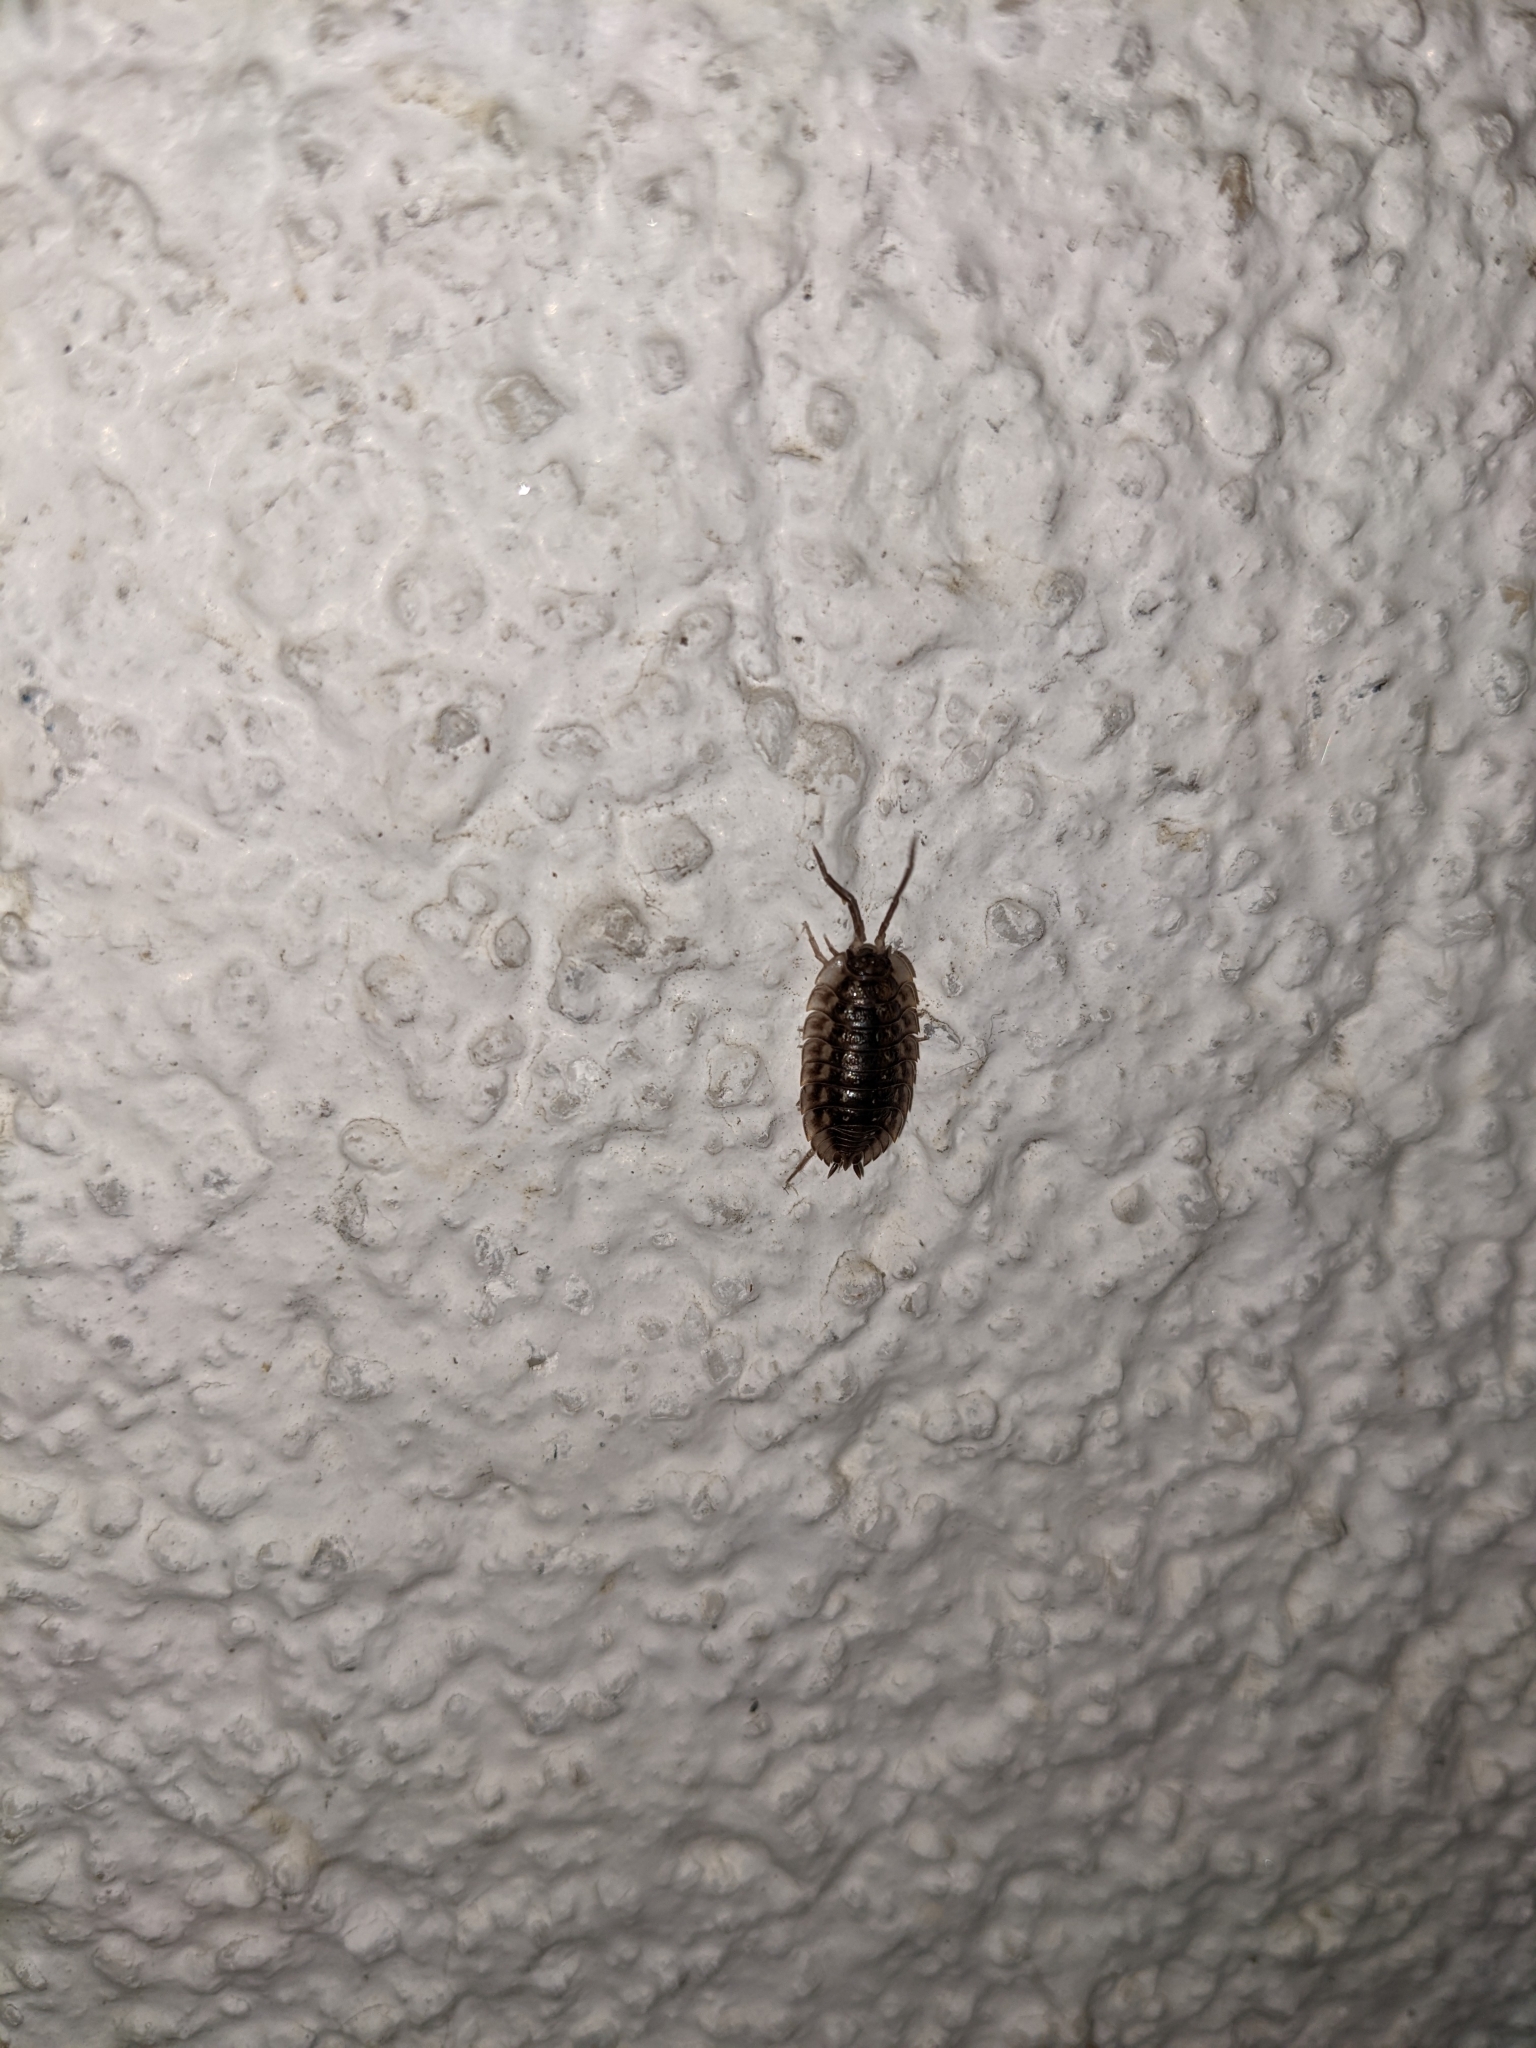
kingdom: Animalia
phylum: Arthropoda
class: Malacostraca
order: Isopoda
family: Oniscidae
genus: Oniscus
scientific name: Oniscus asellus
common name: Common shiny woodlouse
